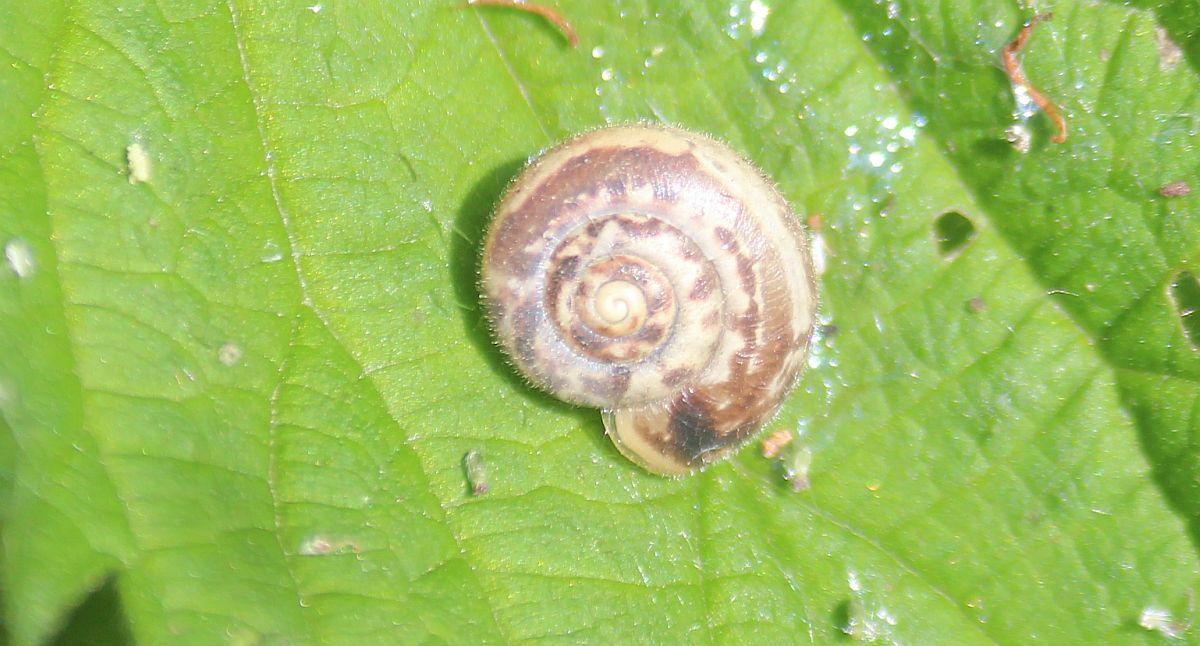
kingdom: Animalia
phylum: Mollusca
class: Gastropoda
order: Stylommatophora
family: Hygromiidae
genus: Monacha
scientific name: Monacha cantiana
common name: Kentish snail
